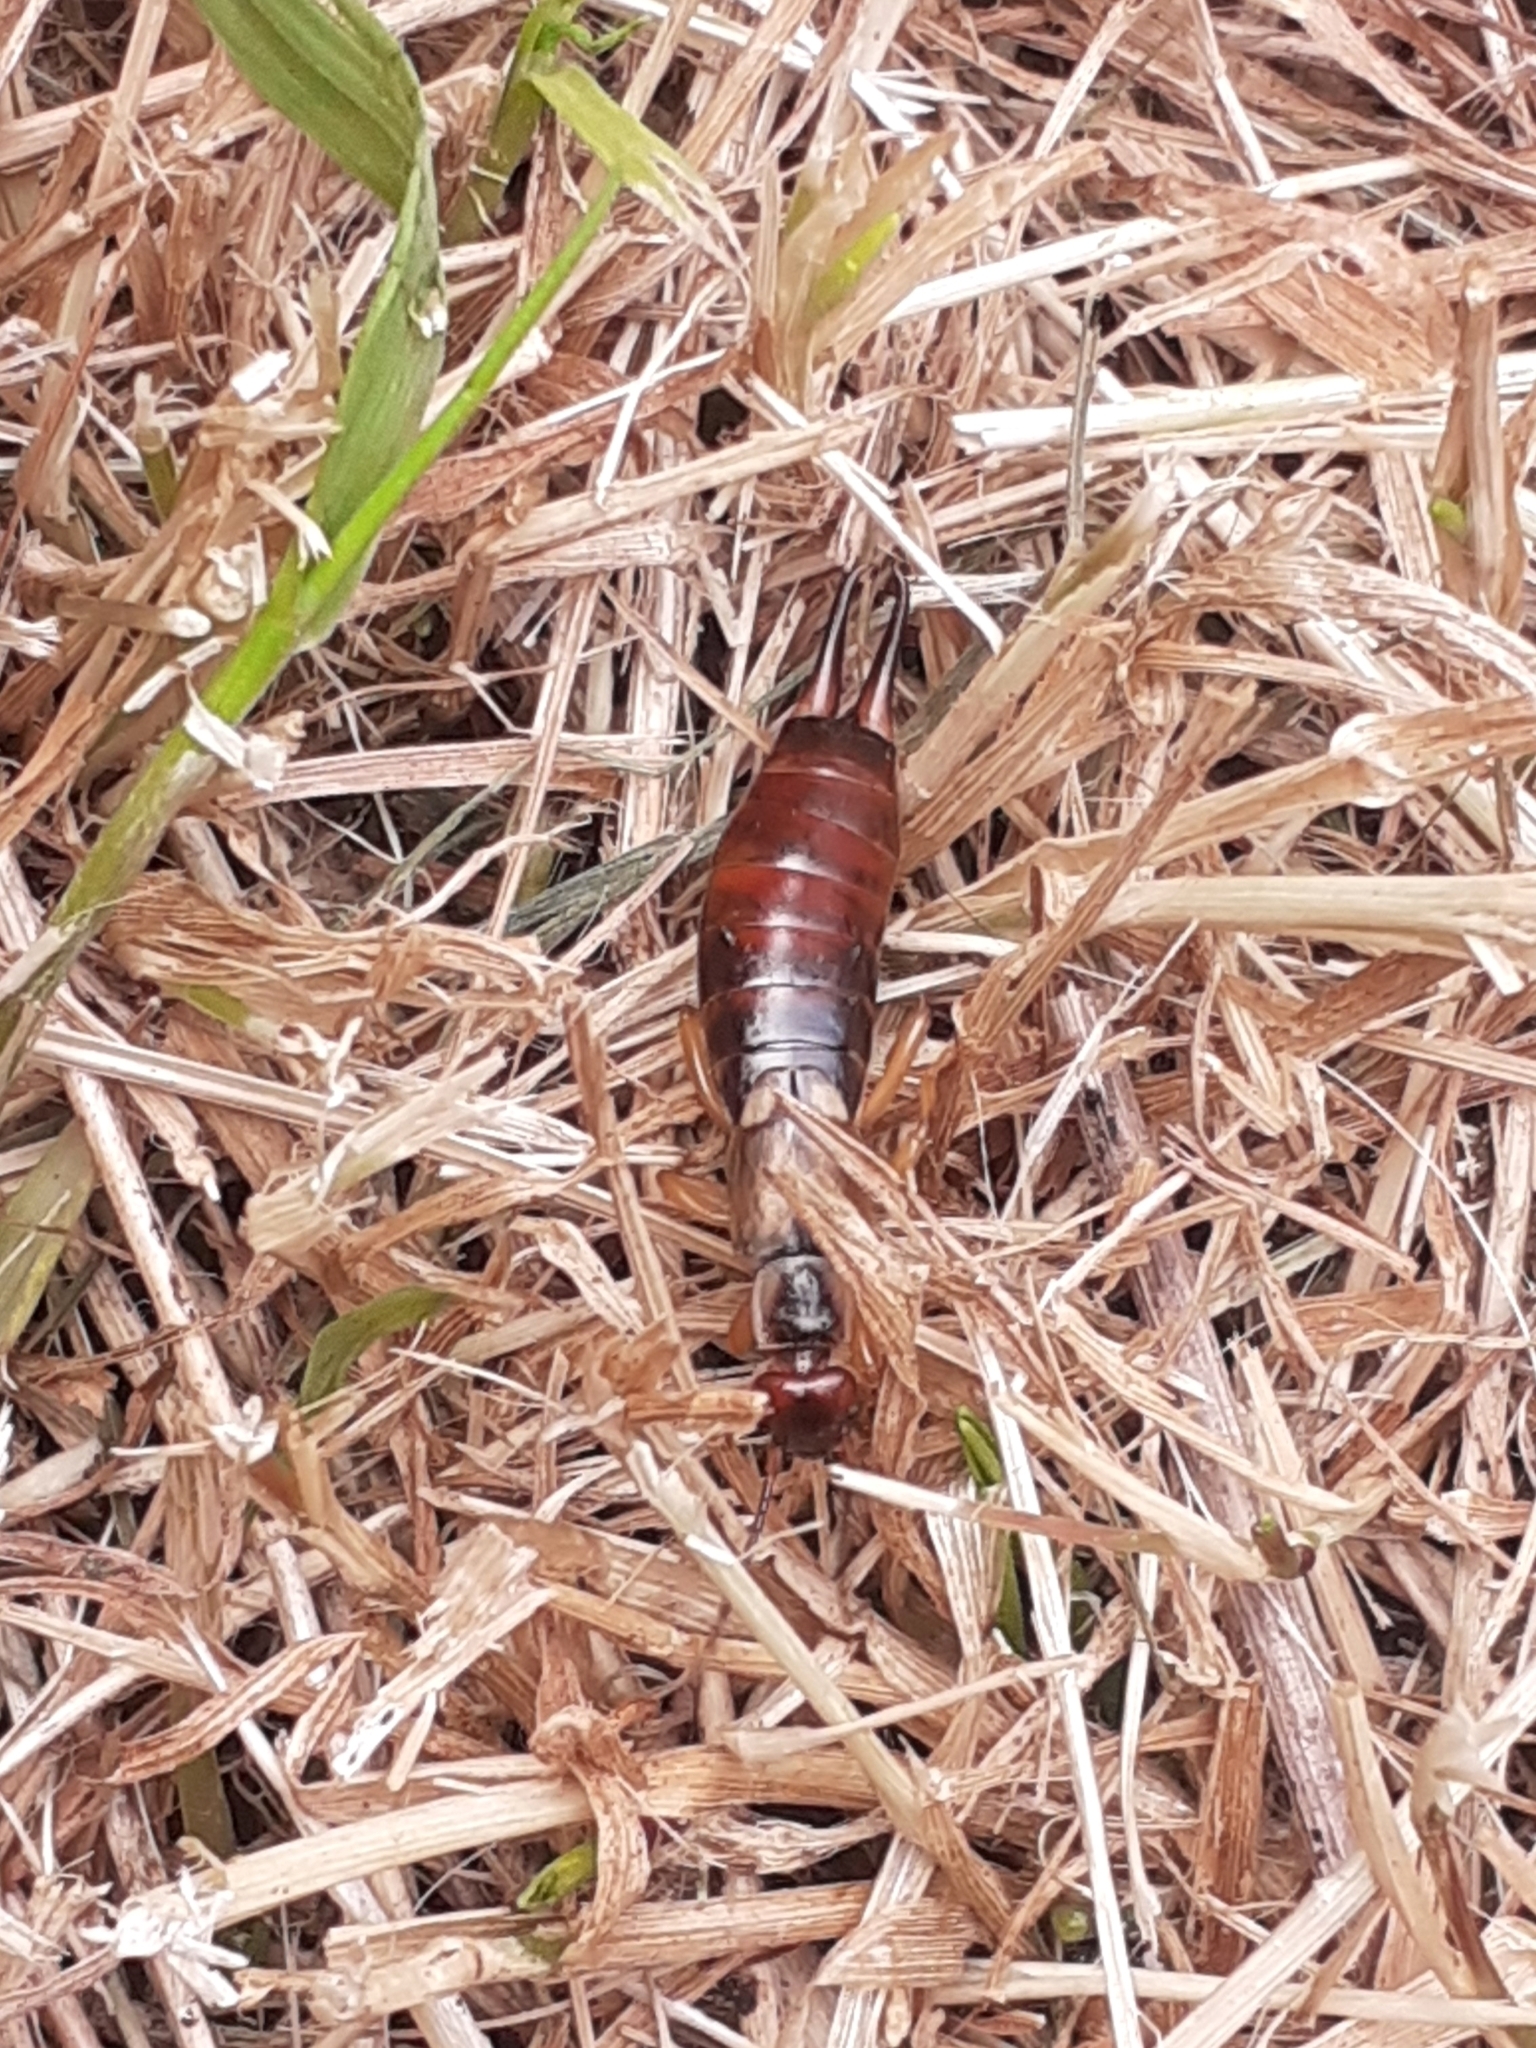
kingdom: Animalia
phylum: Arthropoda
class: Insecta
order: Dermaptera
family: Forficulidae
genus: Forficula
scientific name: Forficula
